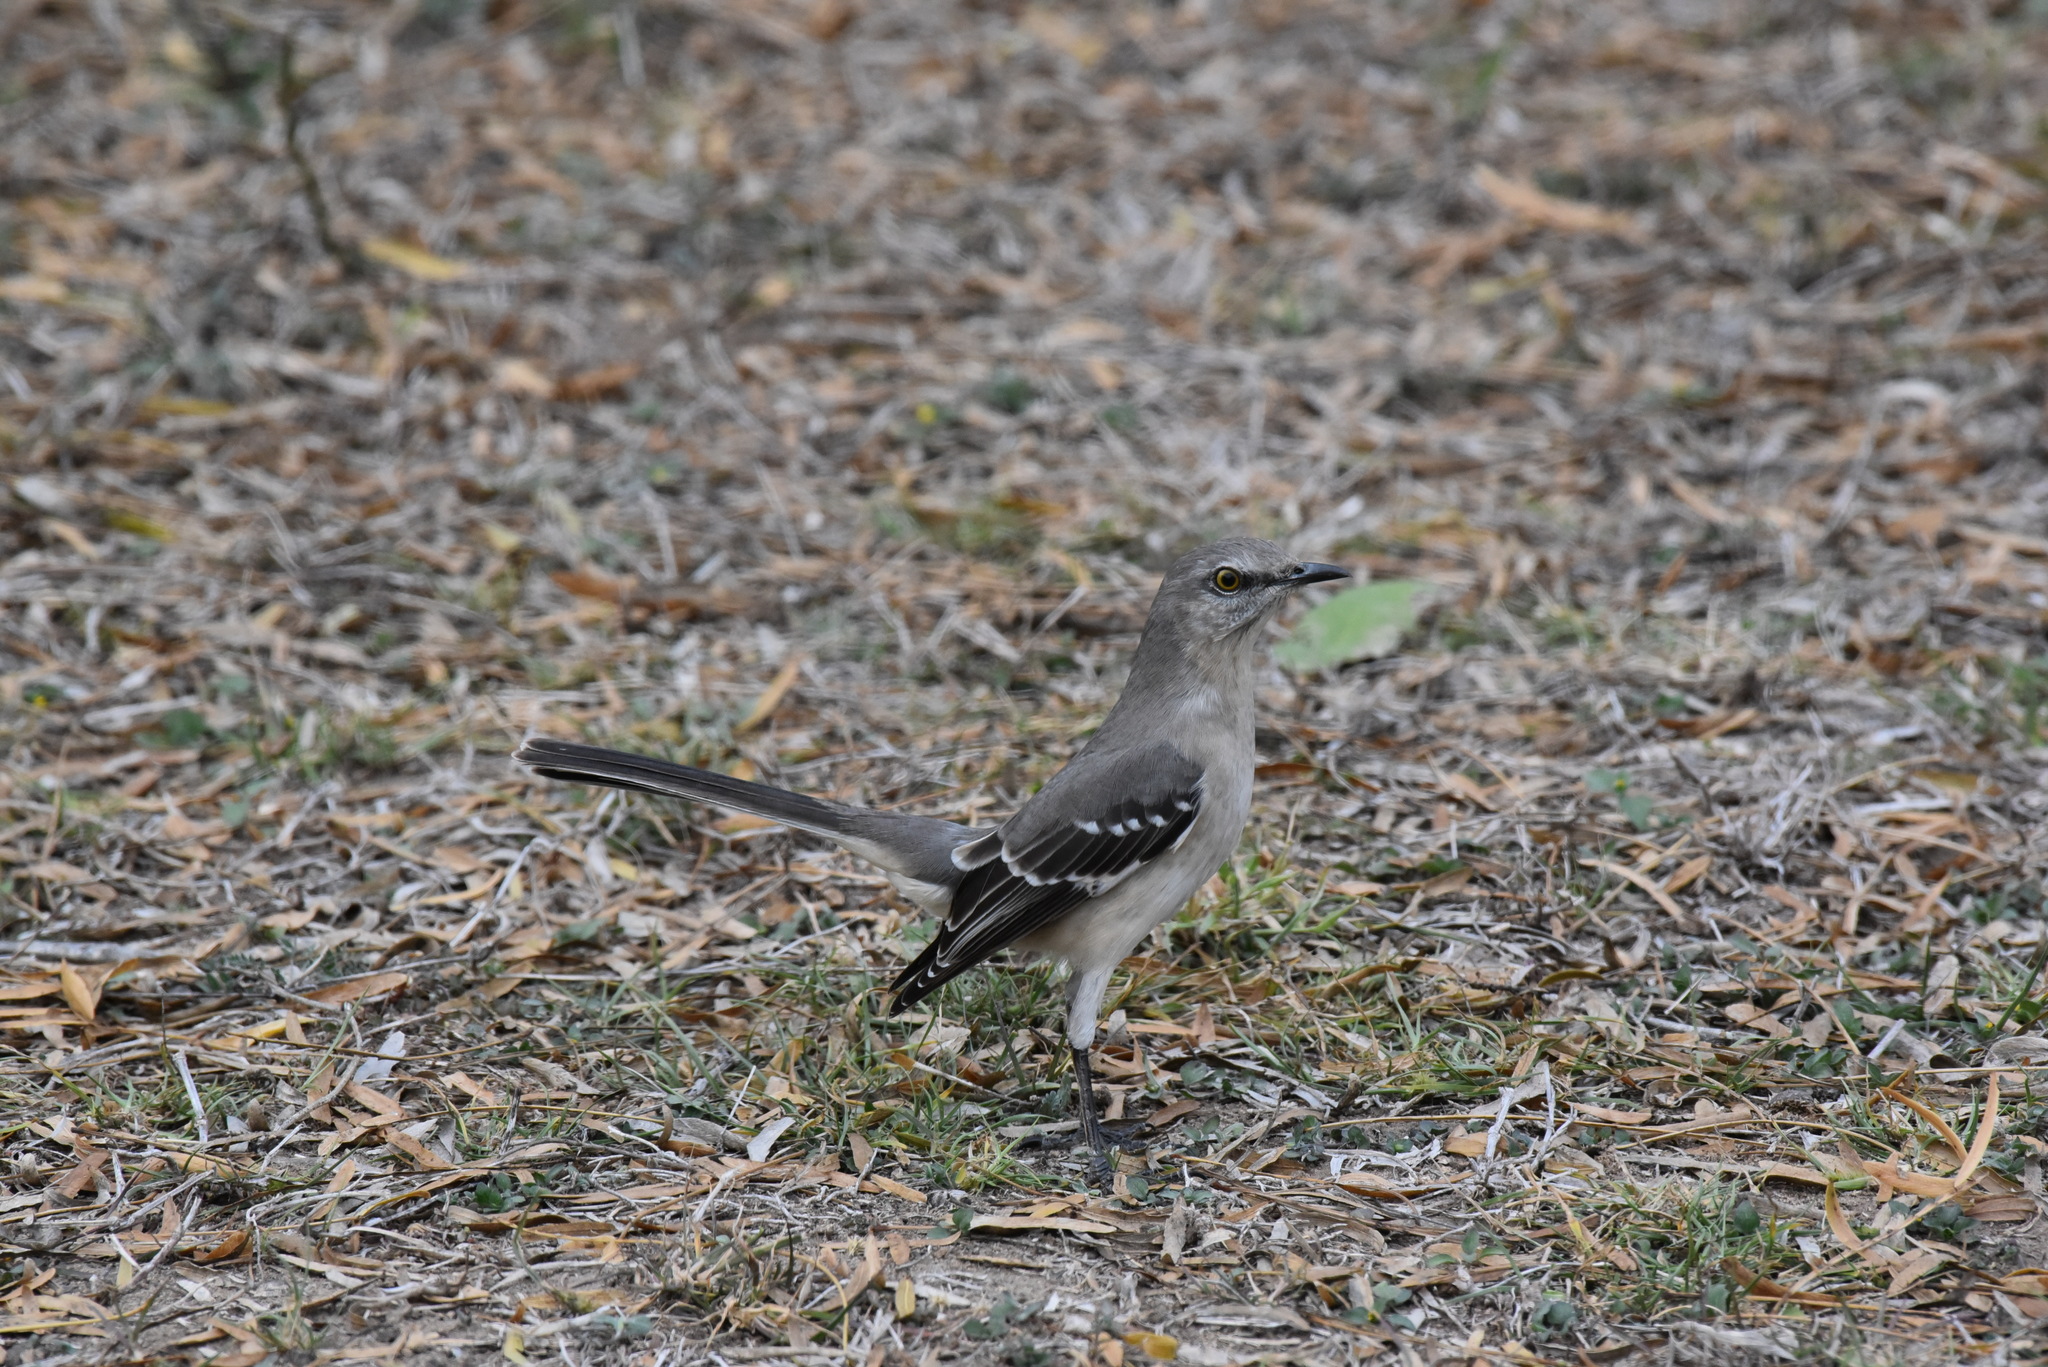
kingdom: Animalia
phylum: Chordata
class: Aves
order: Passeriformes
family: Mimidae
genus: Mimus
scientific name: Mimus polyglottos
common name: Northern mockingbird
